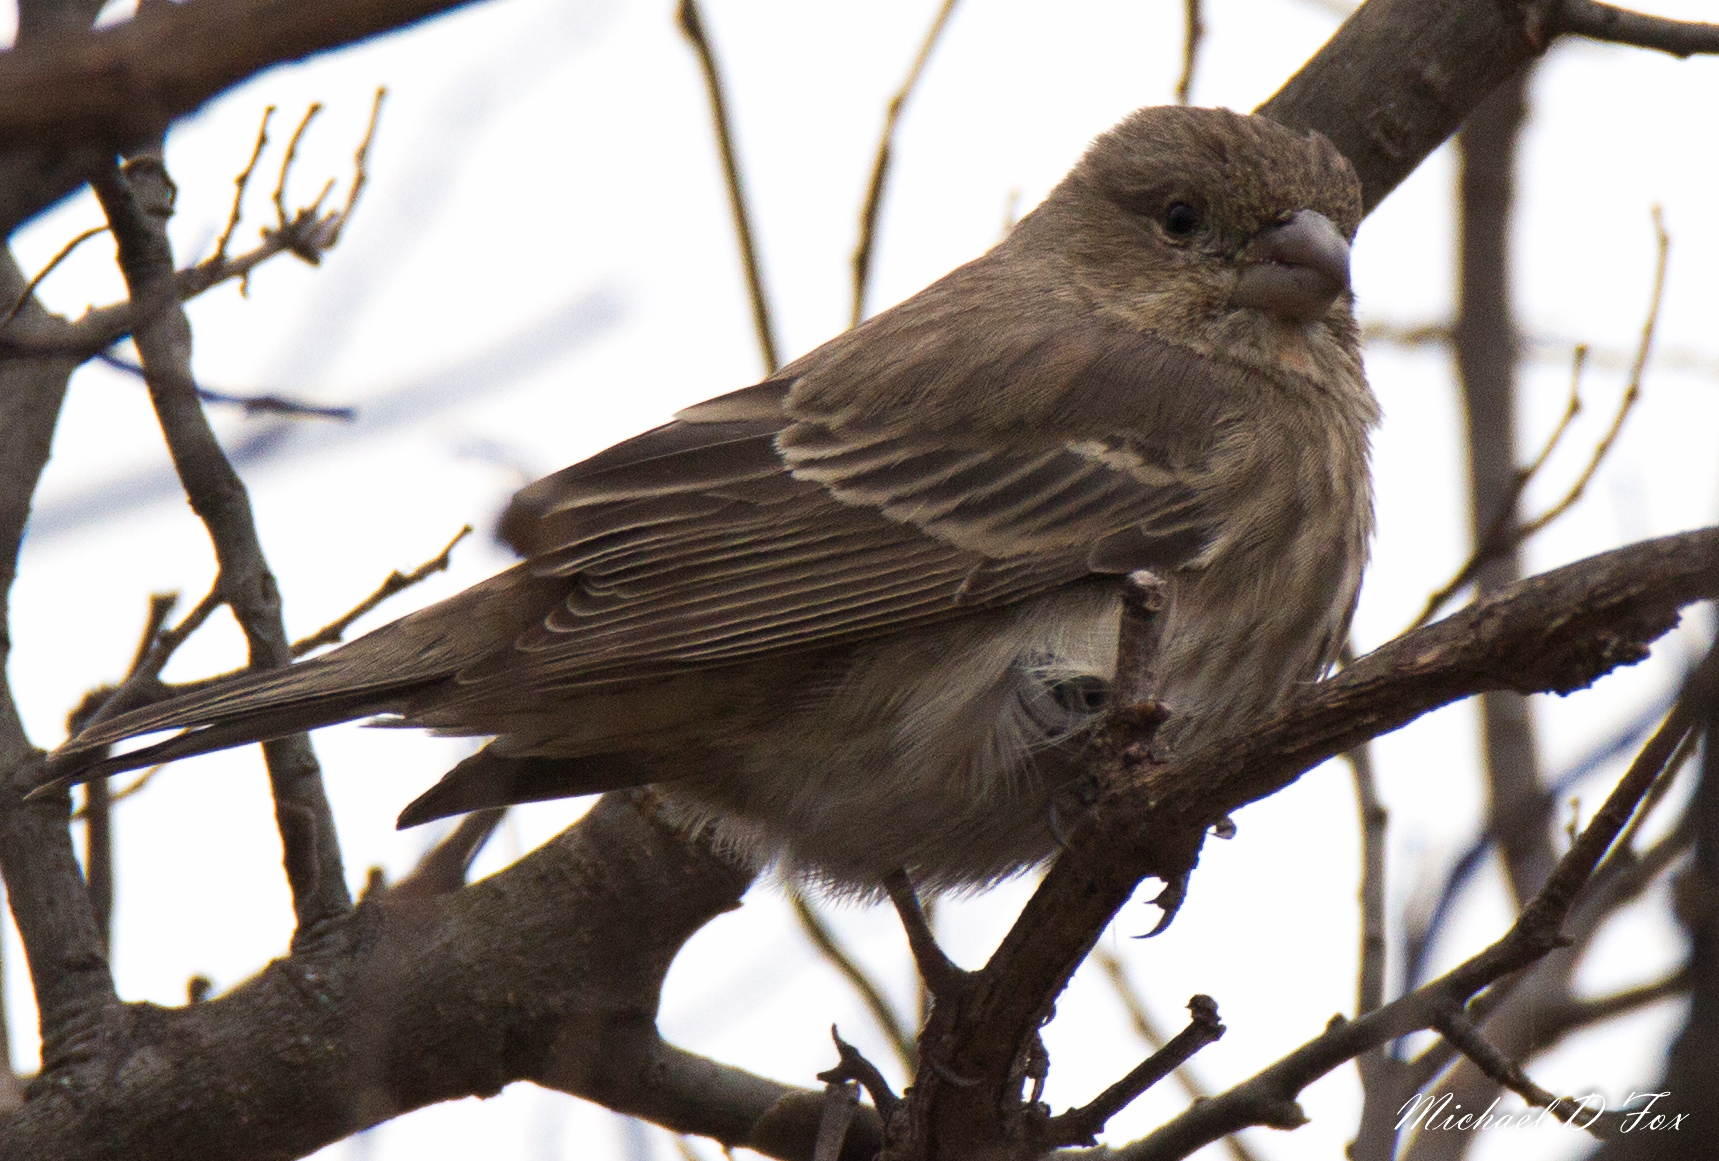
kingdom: Animalia
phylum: Chordata
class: Aves
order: Passeriformes
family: Fringillidae
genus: Haemorhous
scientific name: Haemorhous mexicanus
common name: House finch
